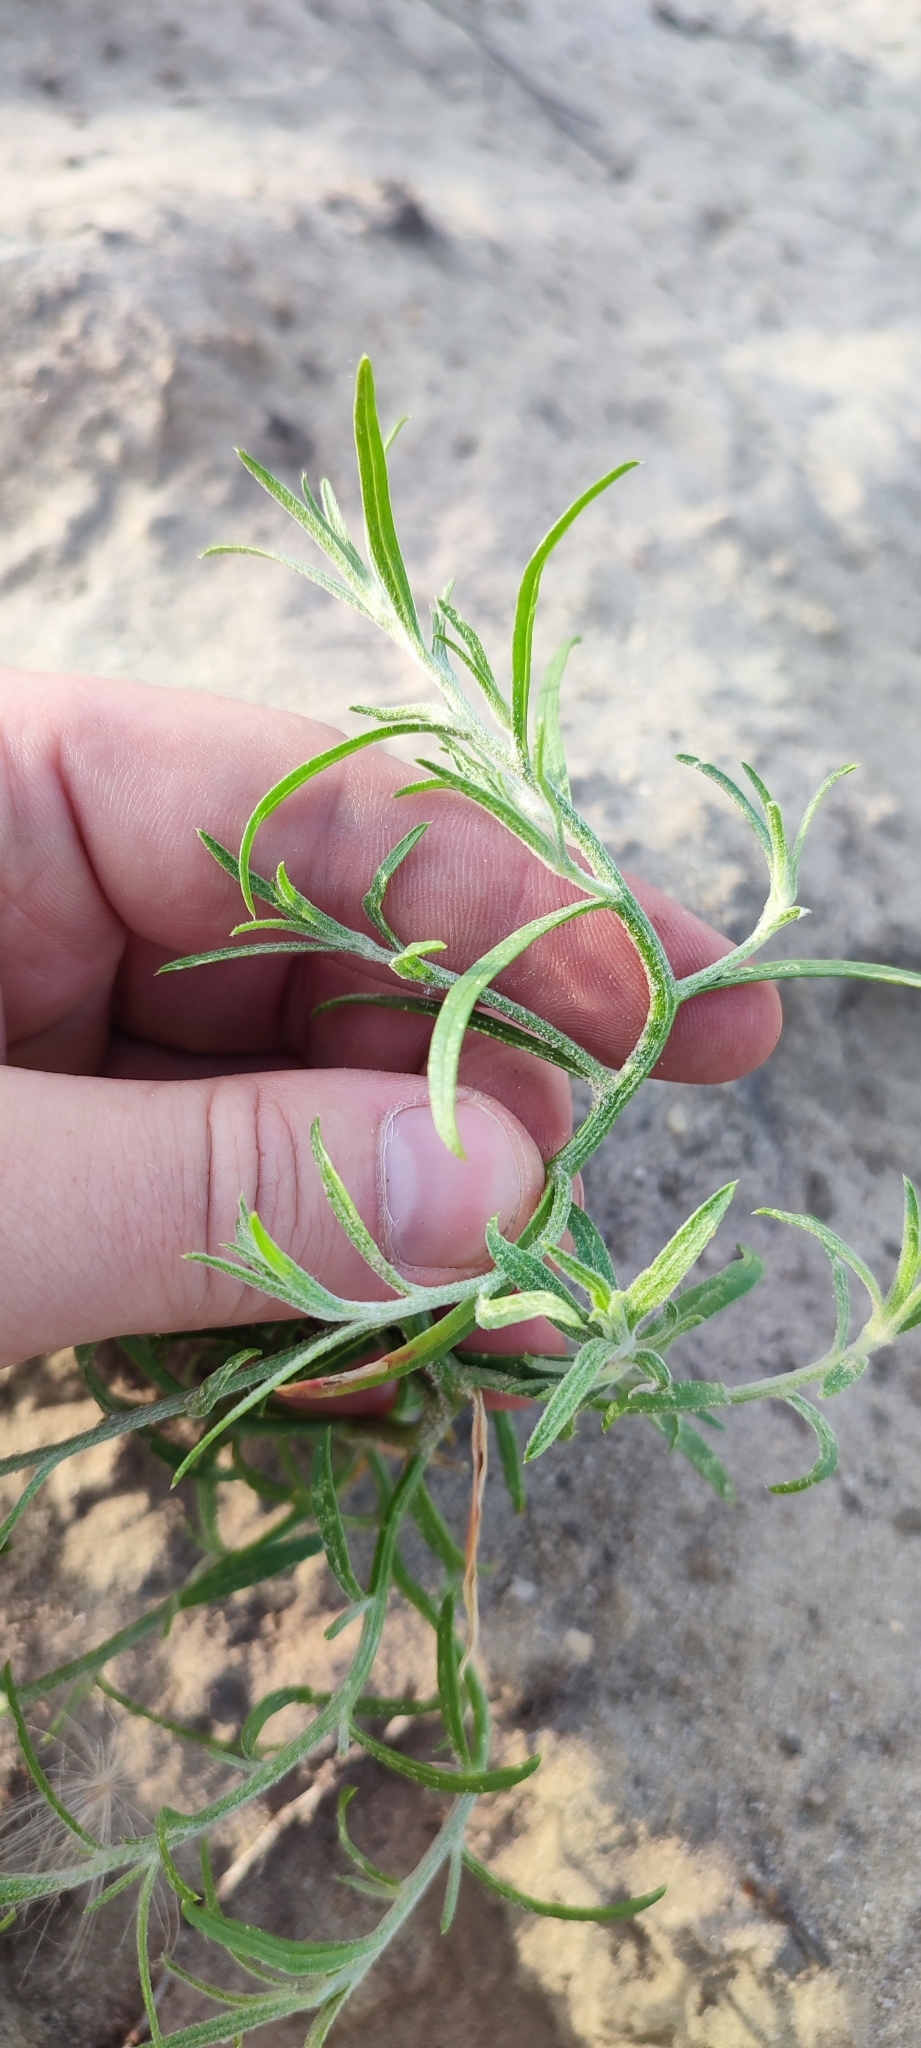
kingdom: Plantae
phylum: Tracheophyta
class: Magnoliopsida
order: Caryophyllales
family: Amaranthaceae
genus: Corispermum
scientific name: Corispermum declinatum
